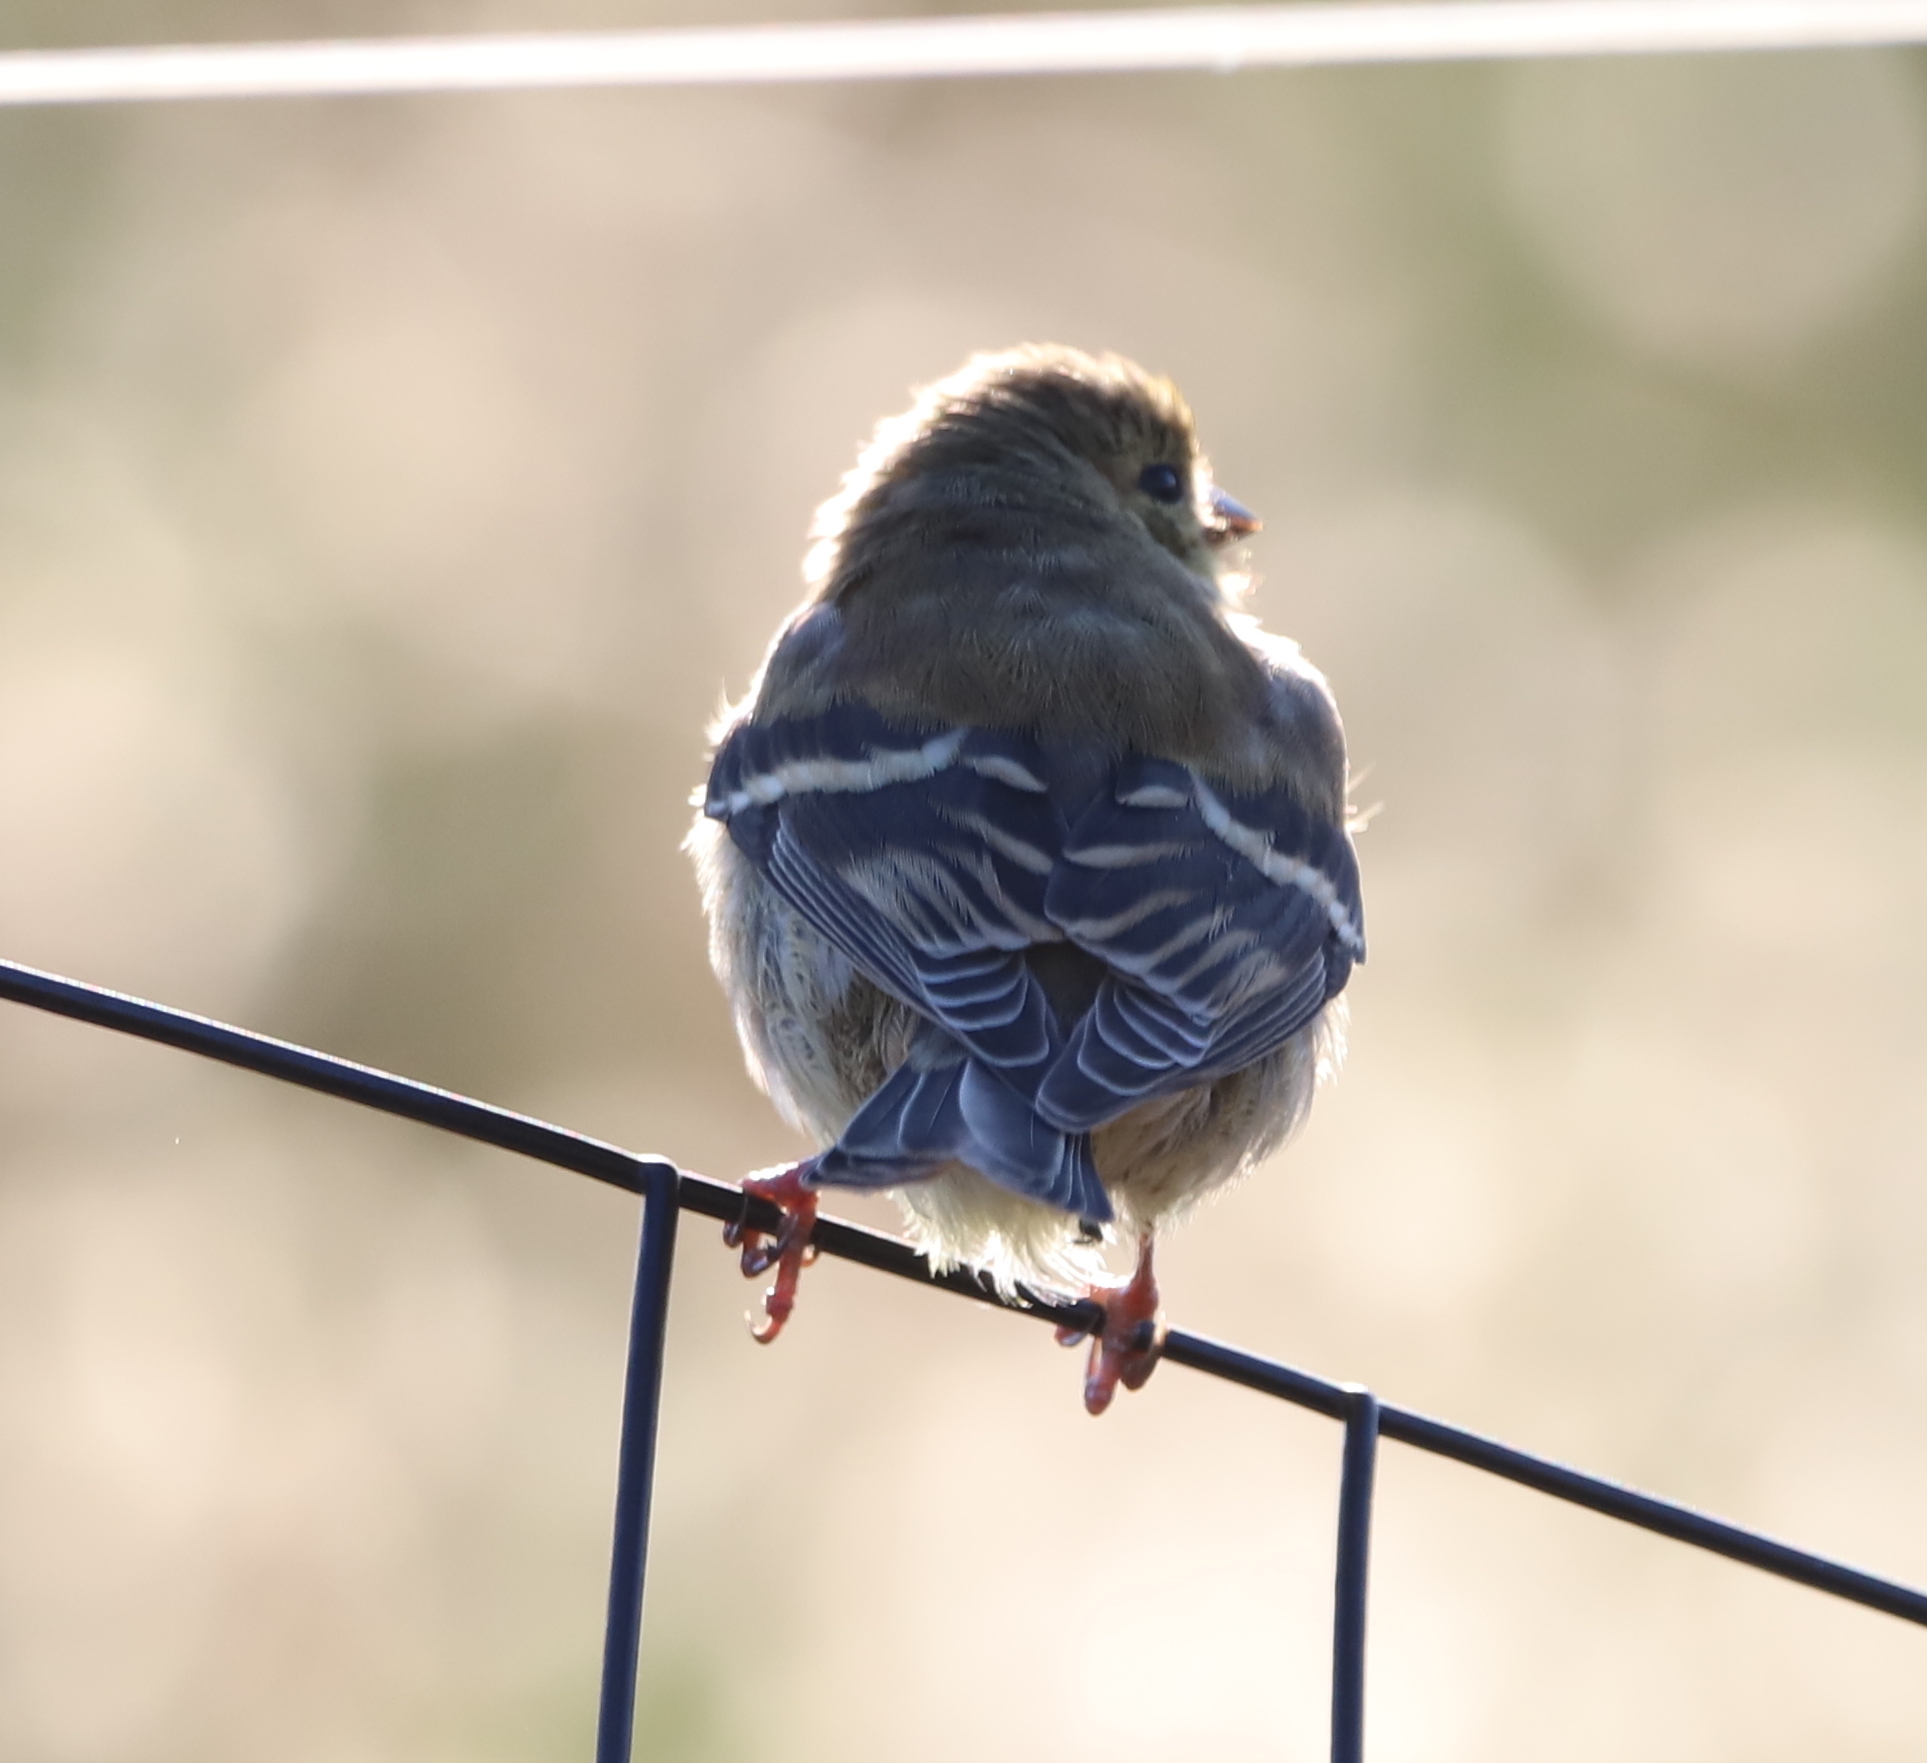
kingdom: Animalia
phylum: Chordata
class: Aves
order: Passeriformes
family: Fringillidae
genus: Spinus
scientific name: Spinus tristis
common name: American goldfinch
